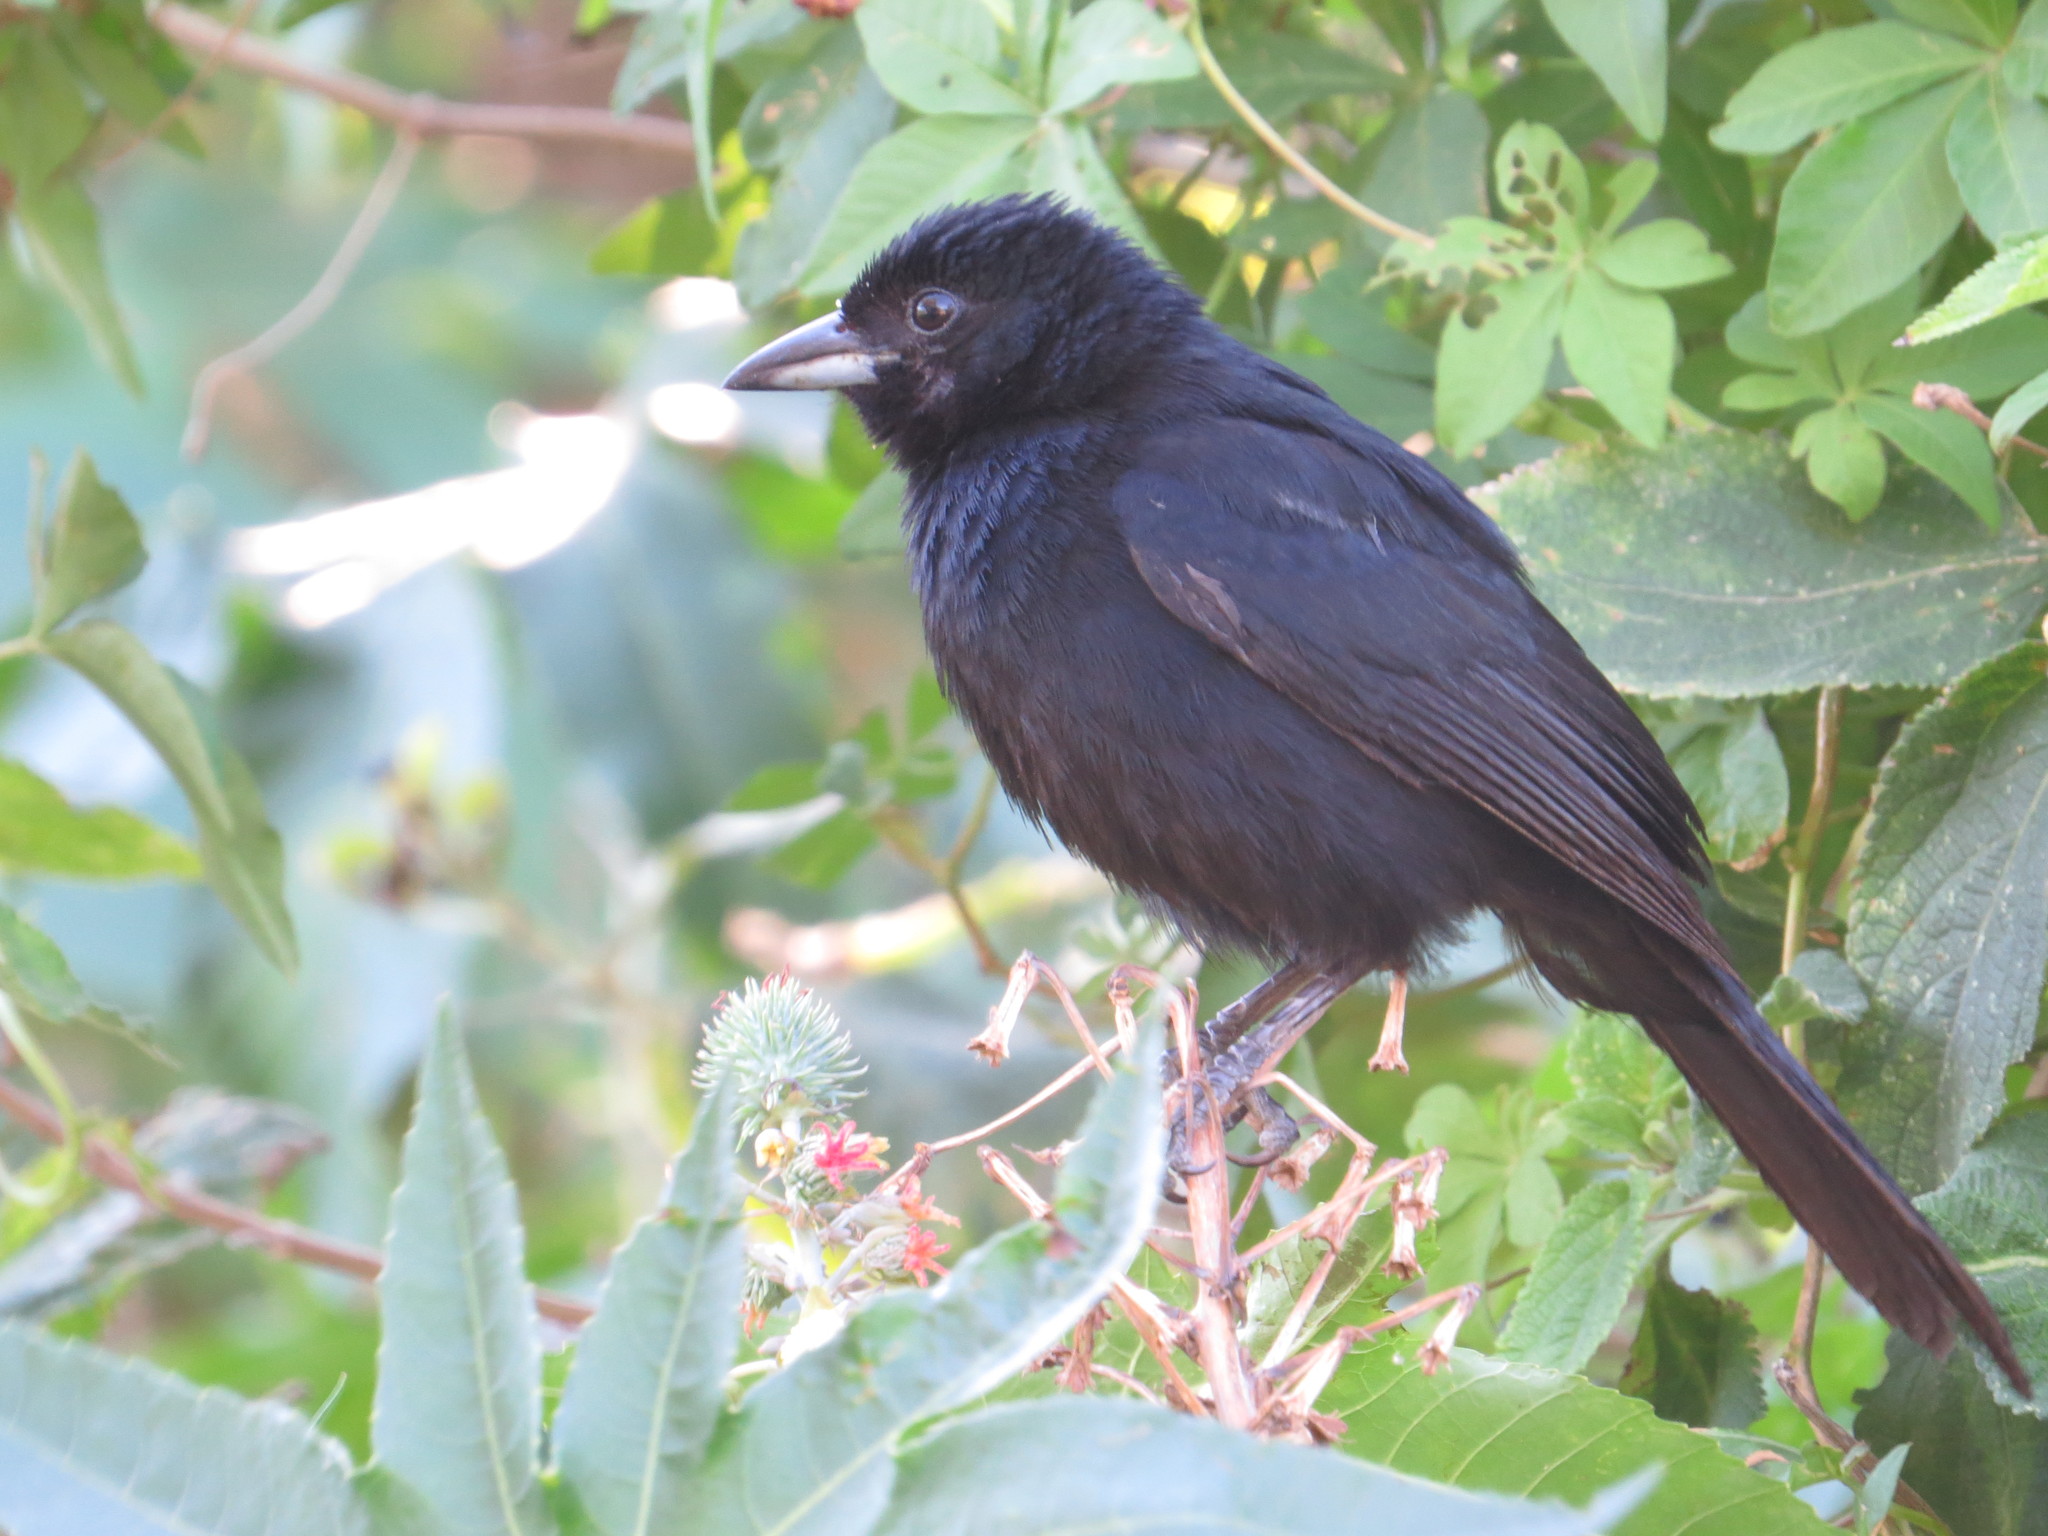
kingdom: Animalia
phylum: Chordata
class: Aves
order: Passeriformes
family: Thraupidae
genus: Tachyphonus
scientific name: Tachyphonus rufus
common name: White-lined tanager
